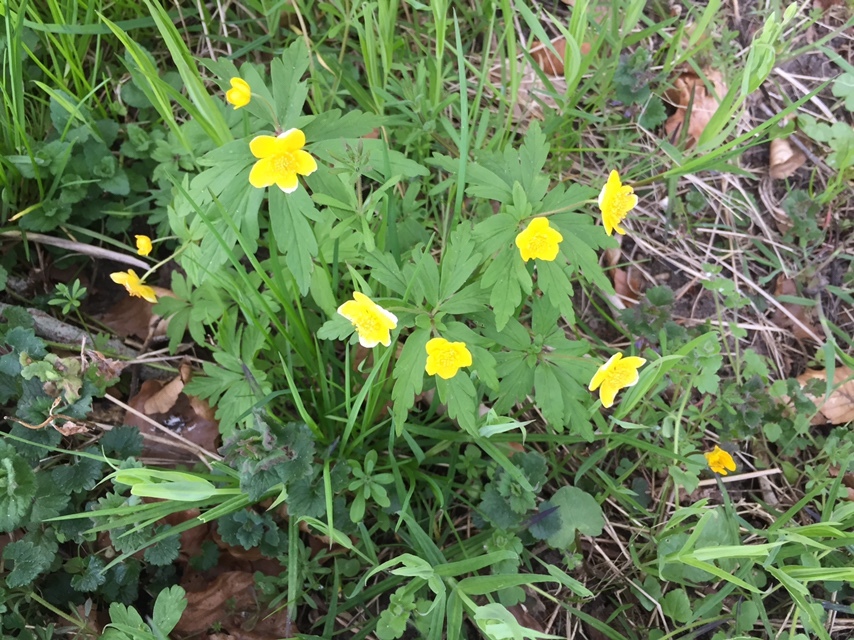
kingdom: Plantae
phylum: Tracheophyta
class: Magnoliopsida
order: Ranunculales
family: Ranunculaceae
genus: Anemone
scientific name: Anemone ranunculoides
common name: Yellow anemone
